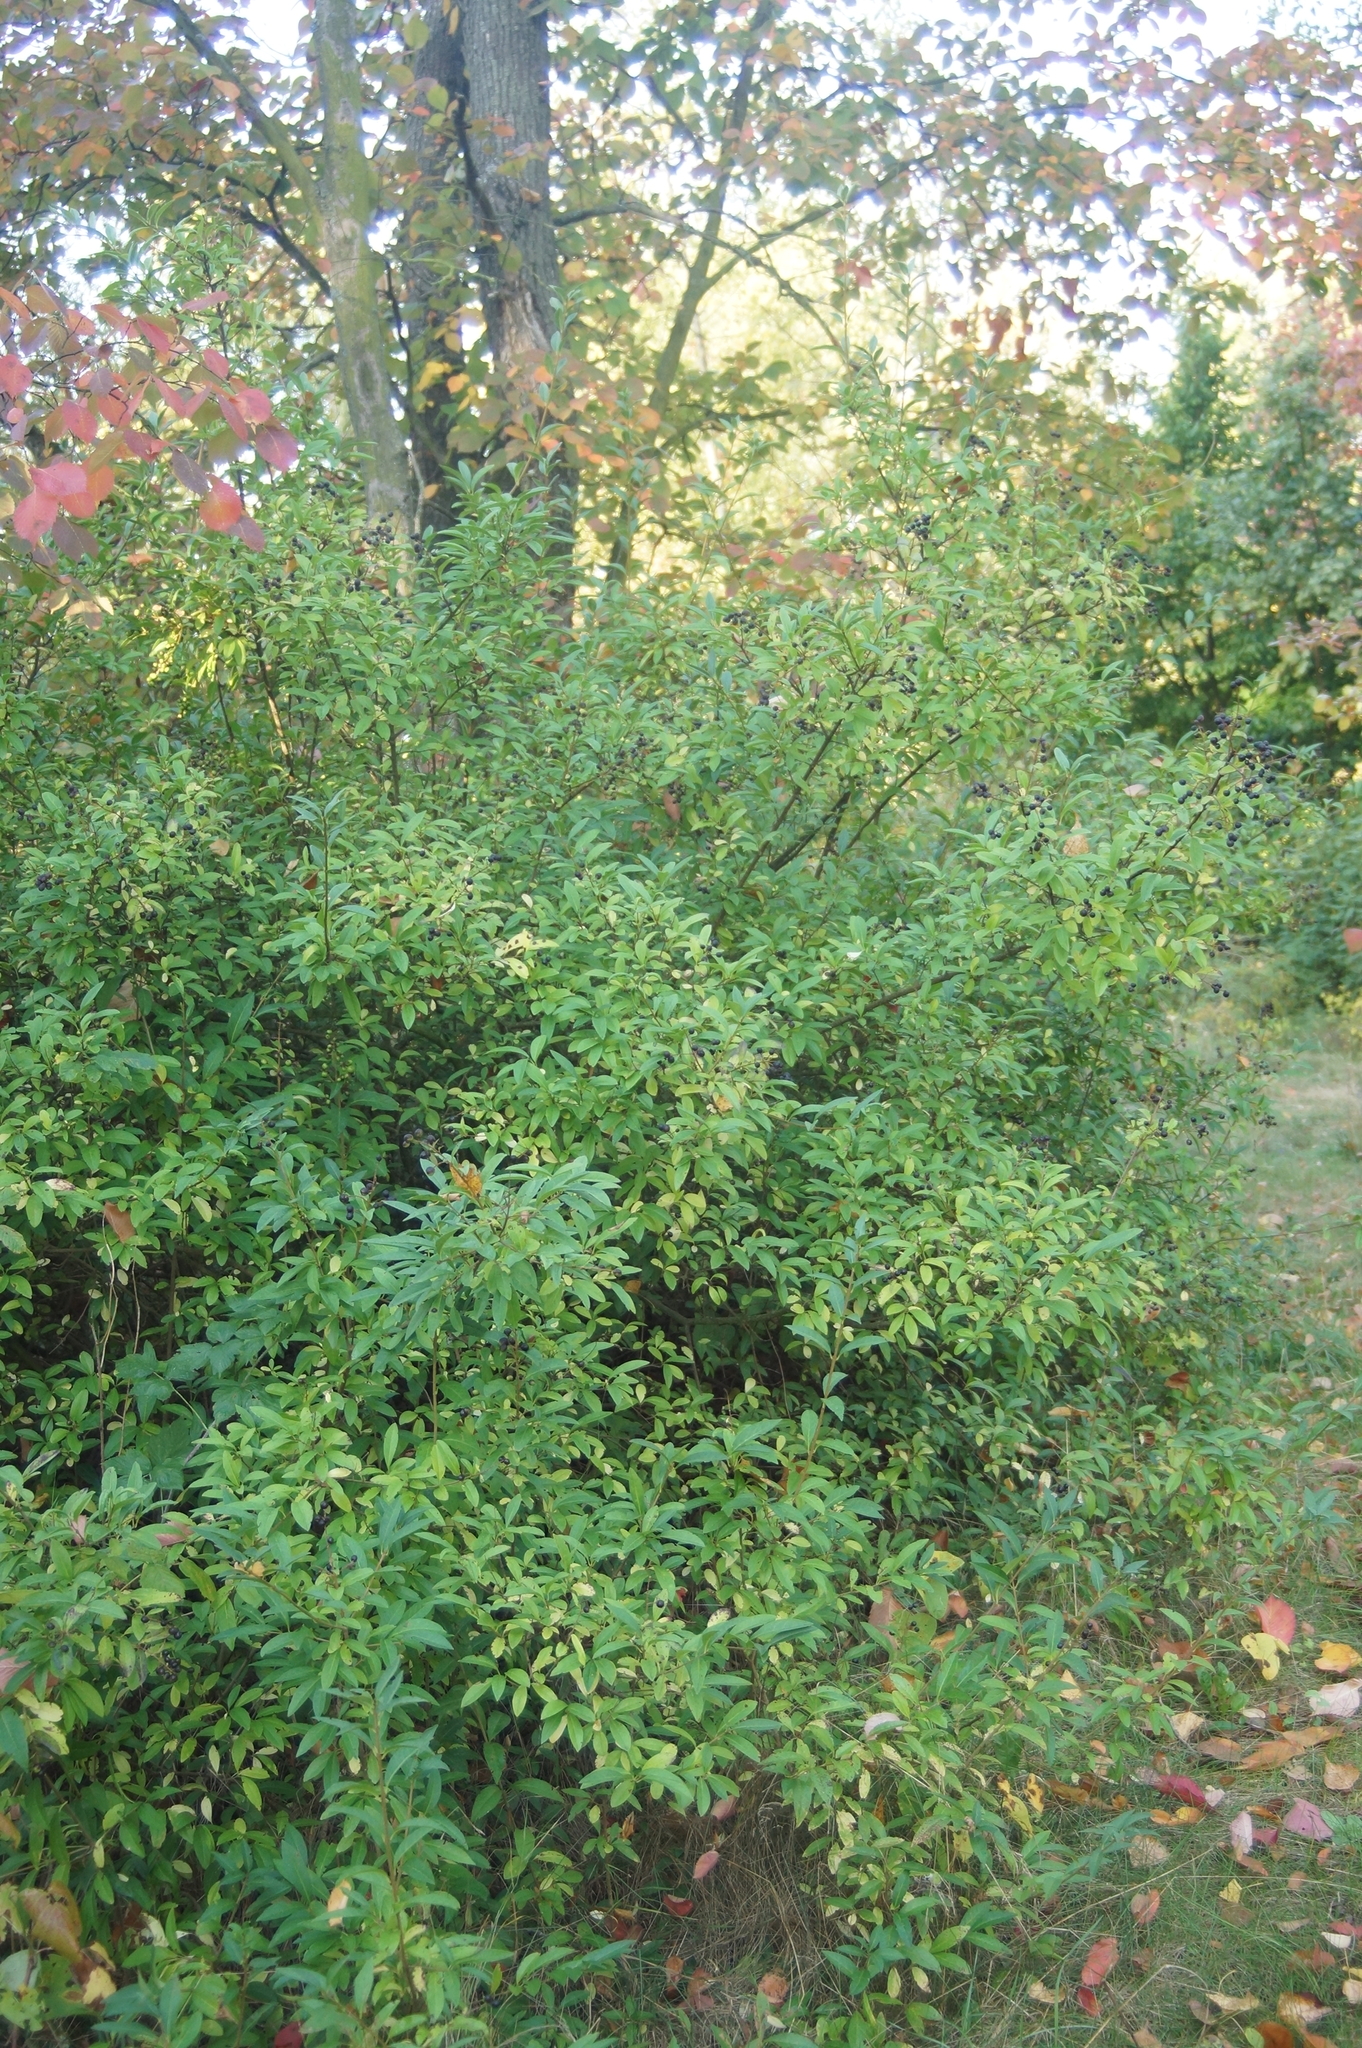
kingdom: Plantae
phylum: Tracheophyta
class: Magnoliopsida
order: Lamiales
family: Oleaceae
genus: Ligustrum
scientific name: Ligustrum vulgare
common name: Wild privet
